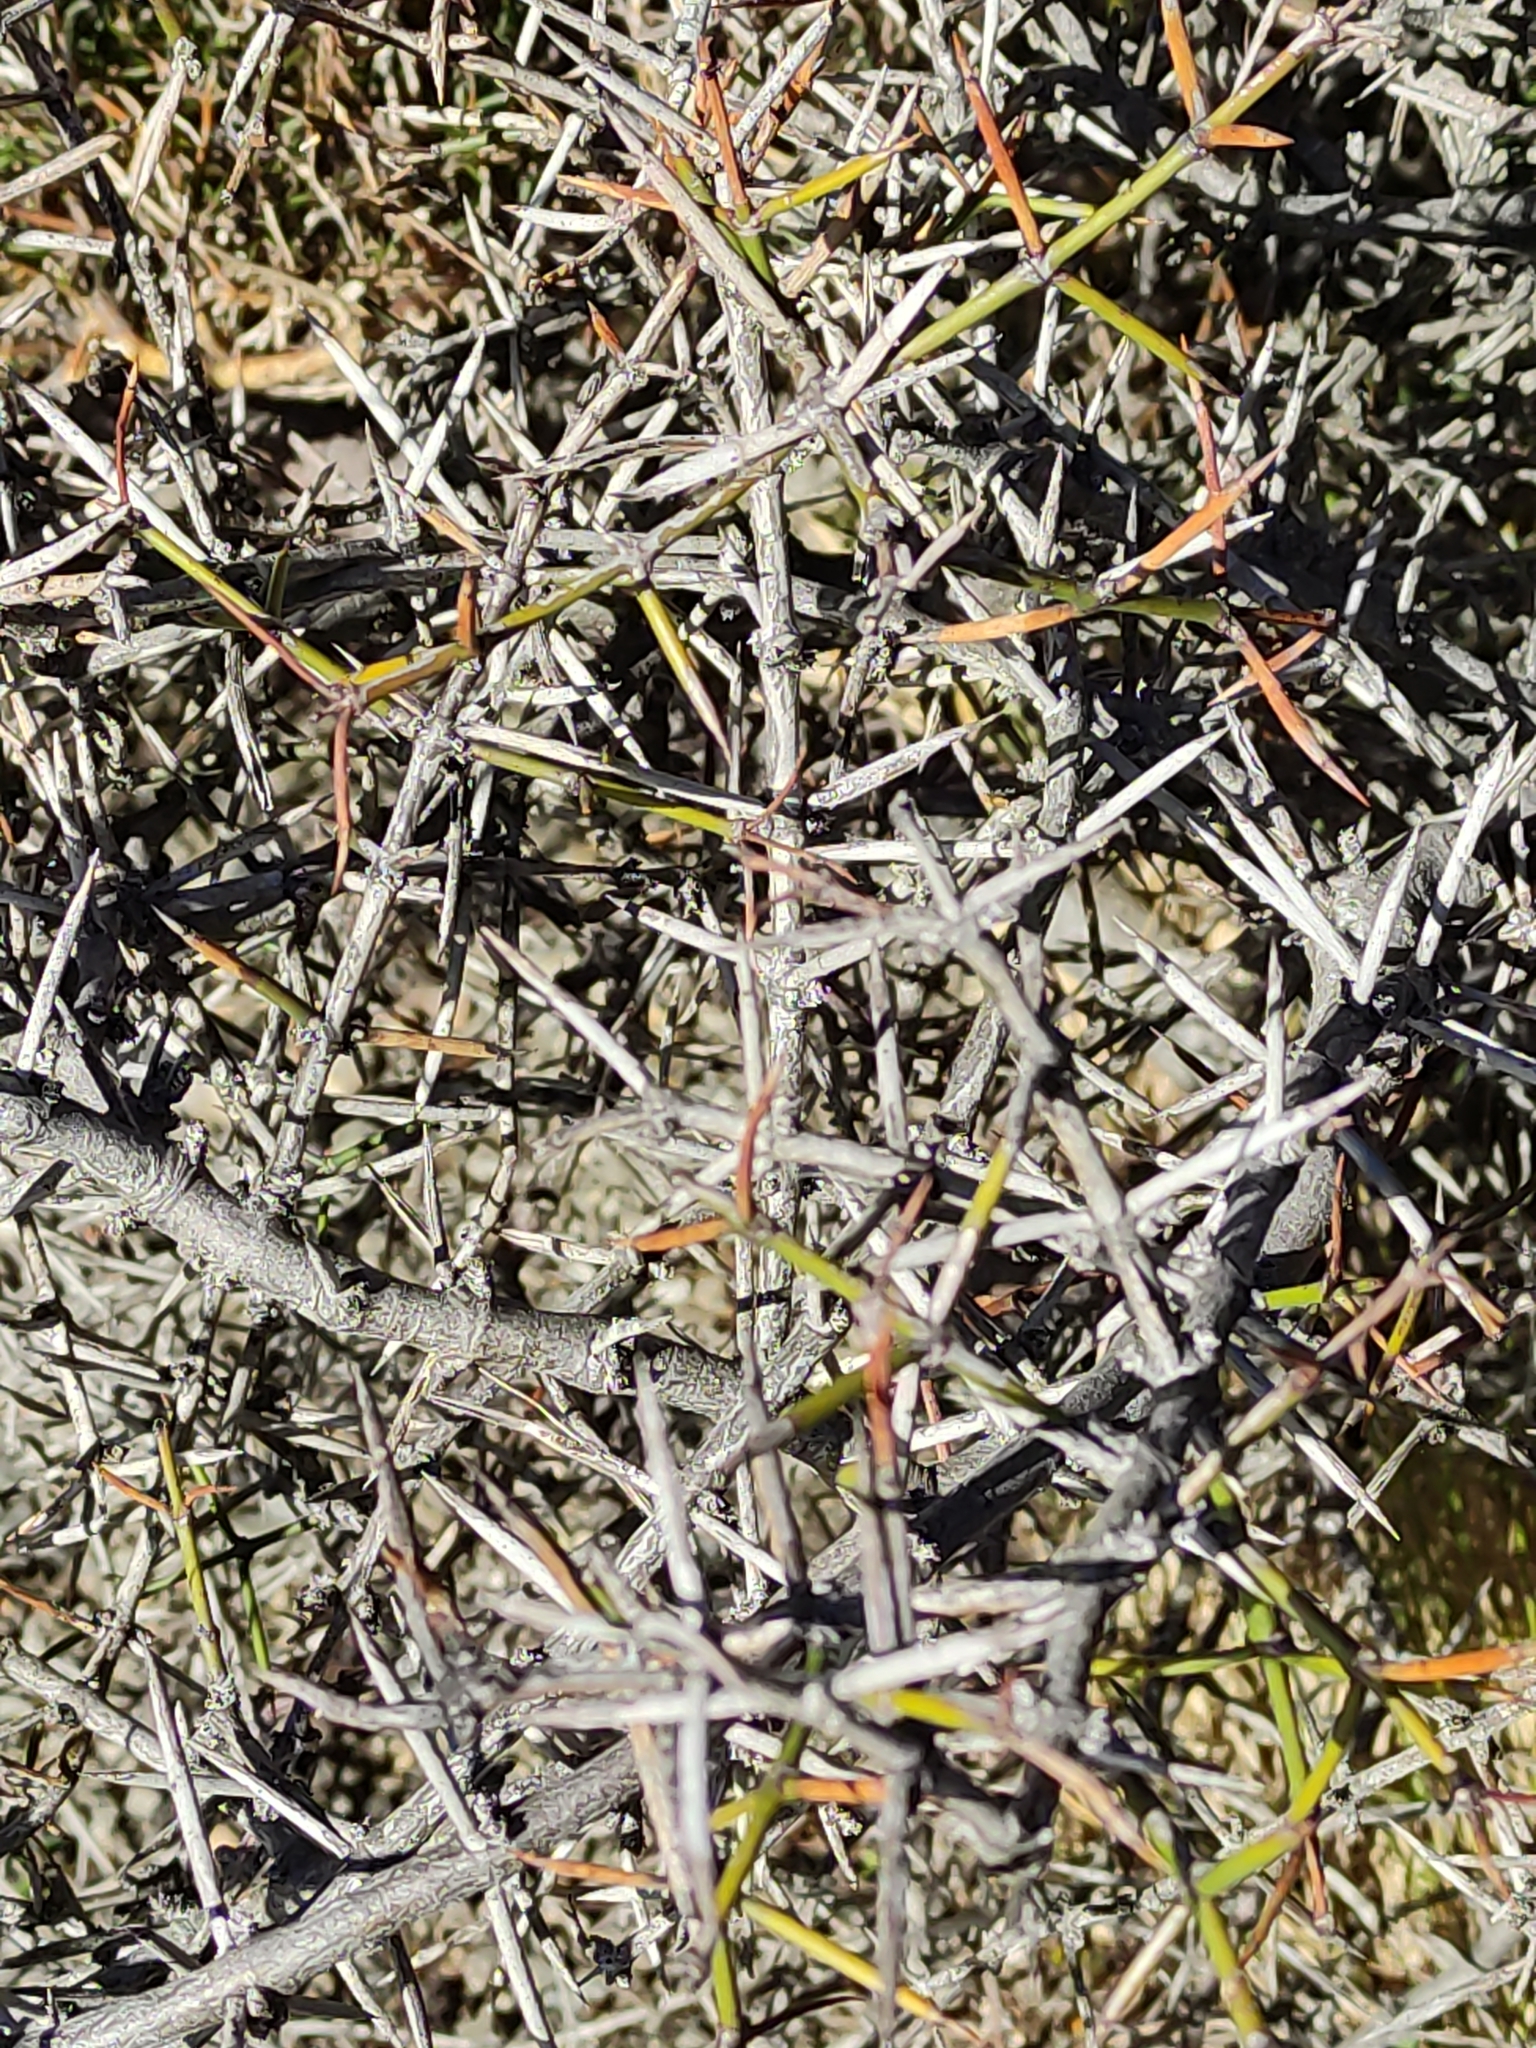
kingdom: Plantae
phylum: Tracheophyta
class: Magnoliopsida
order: Rosales
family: Rhamnaceae
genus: Discaria
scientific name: Discaria toumatou
